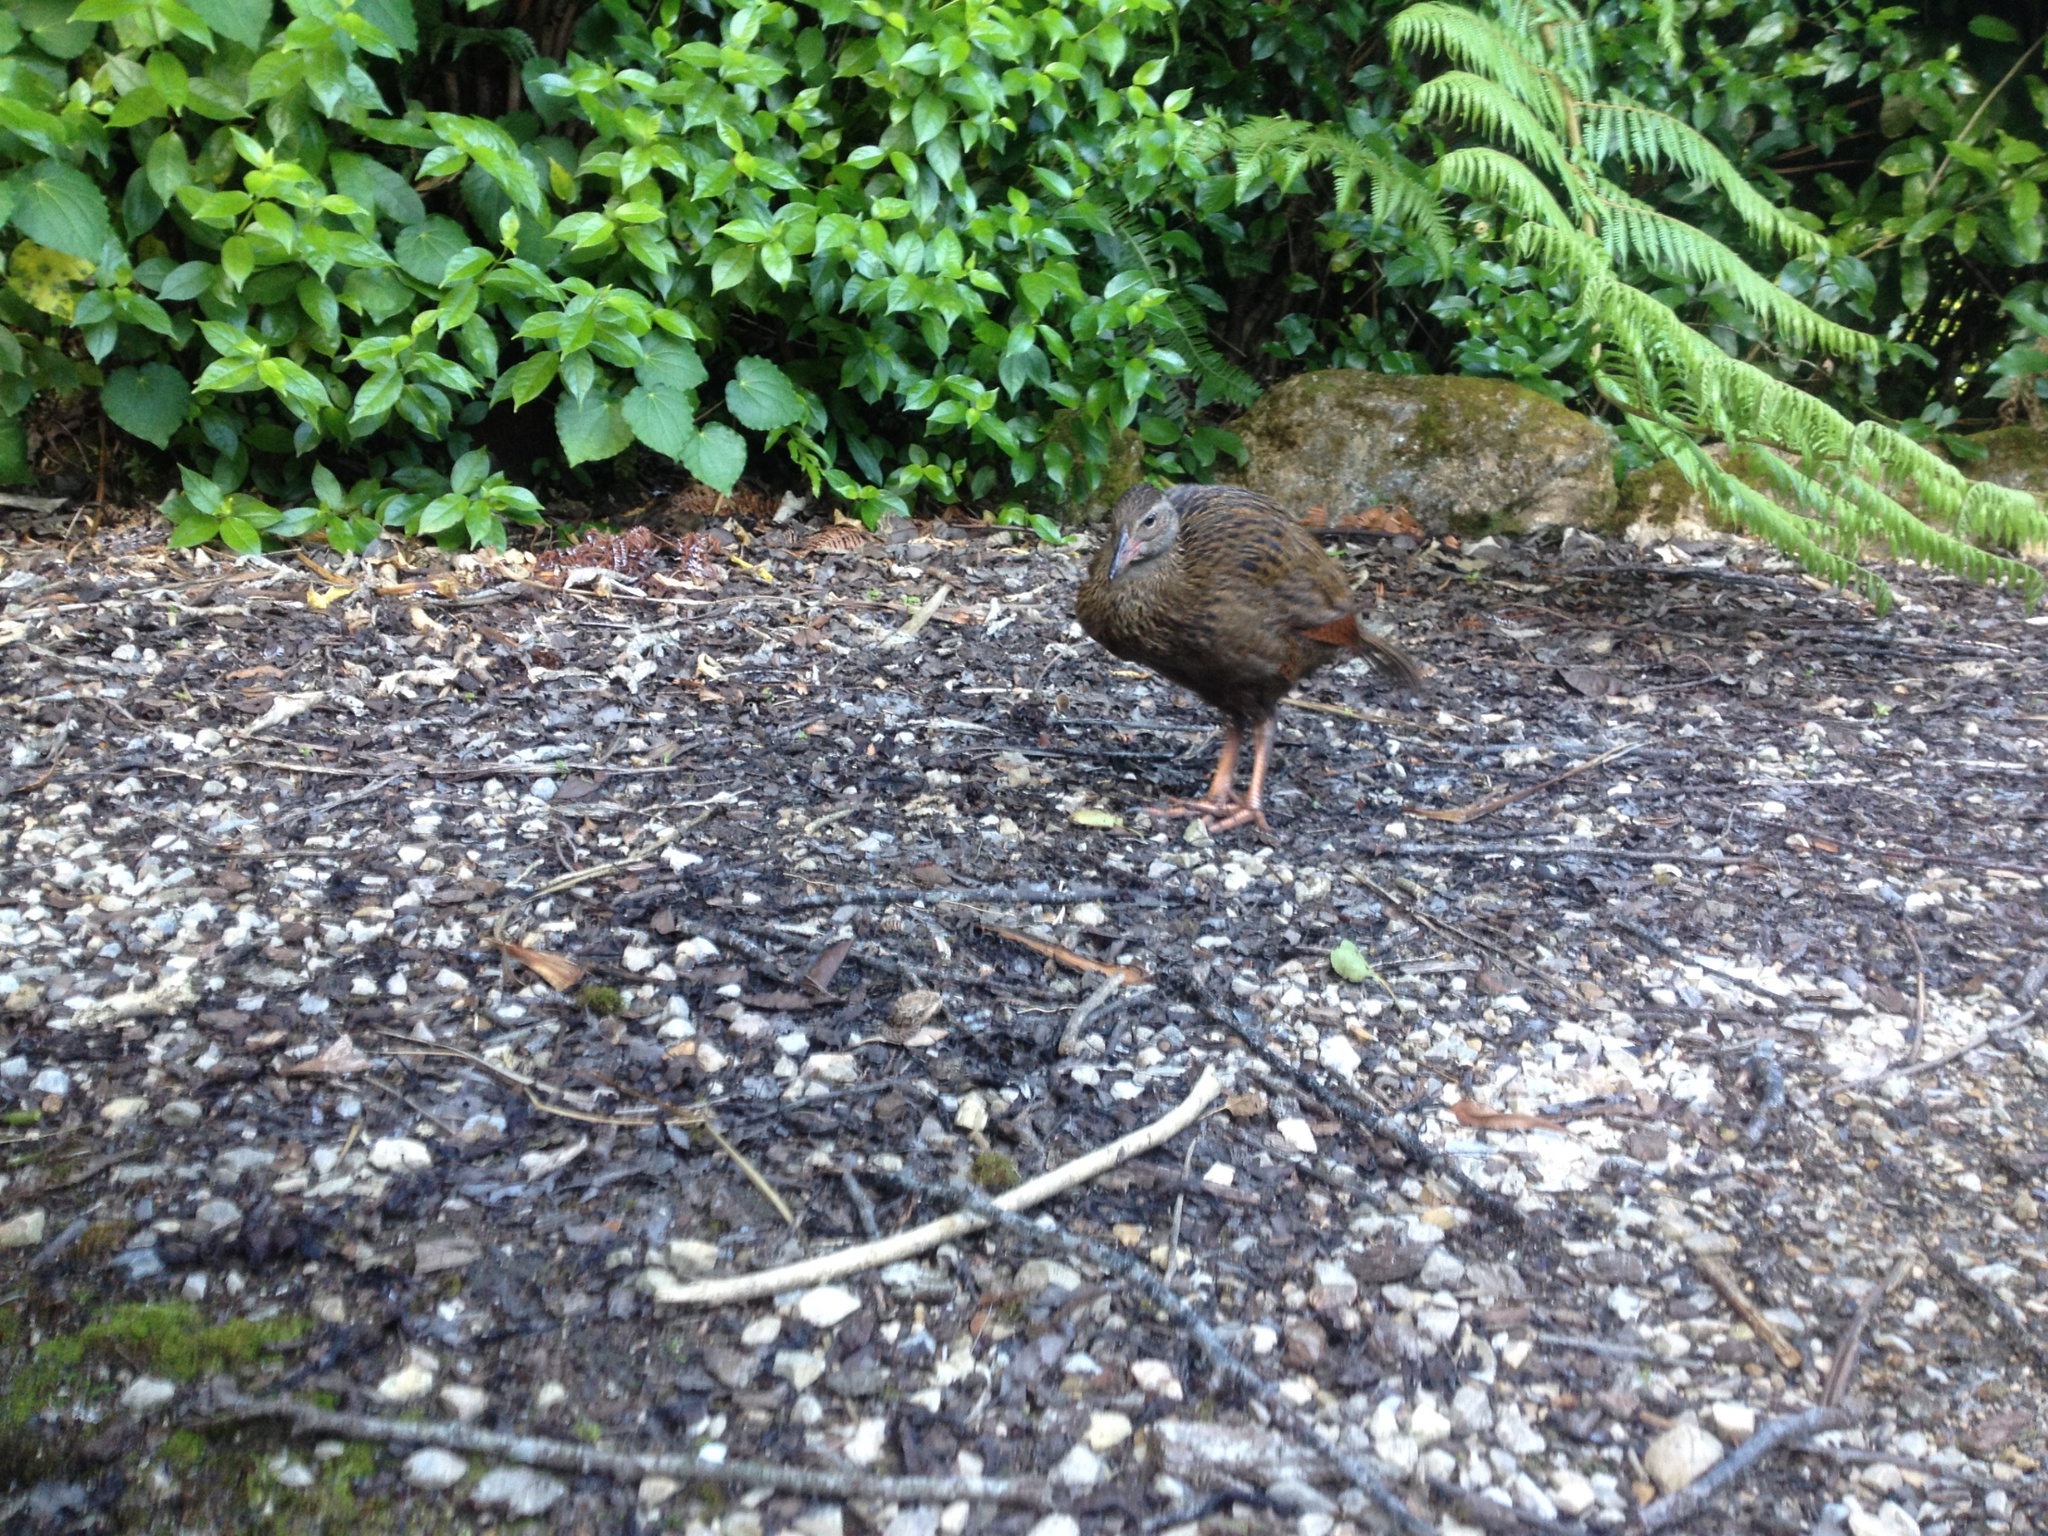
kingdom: Animalia
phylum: Chordata
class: Aves
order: Gruiformes
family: Rallidae
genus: Gallirallus
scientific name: Gallirallus australis
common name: Weka
